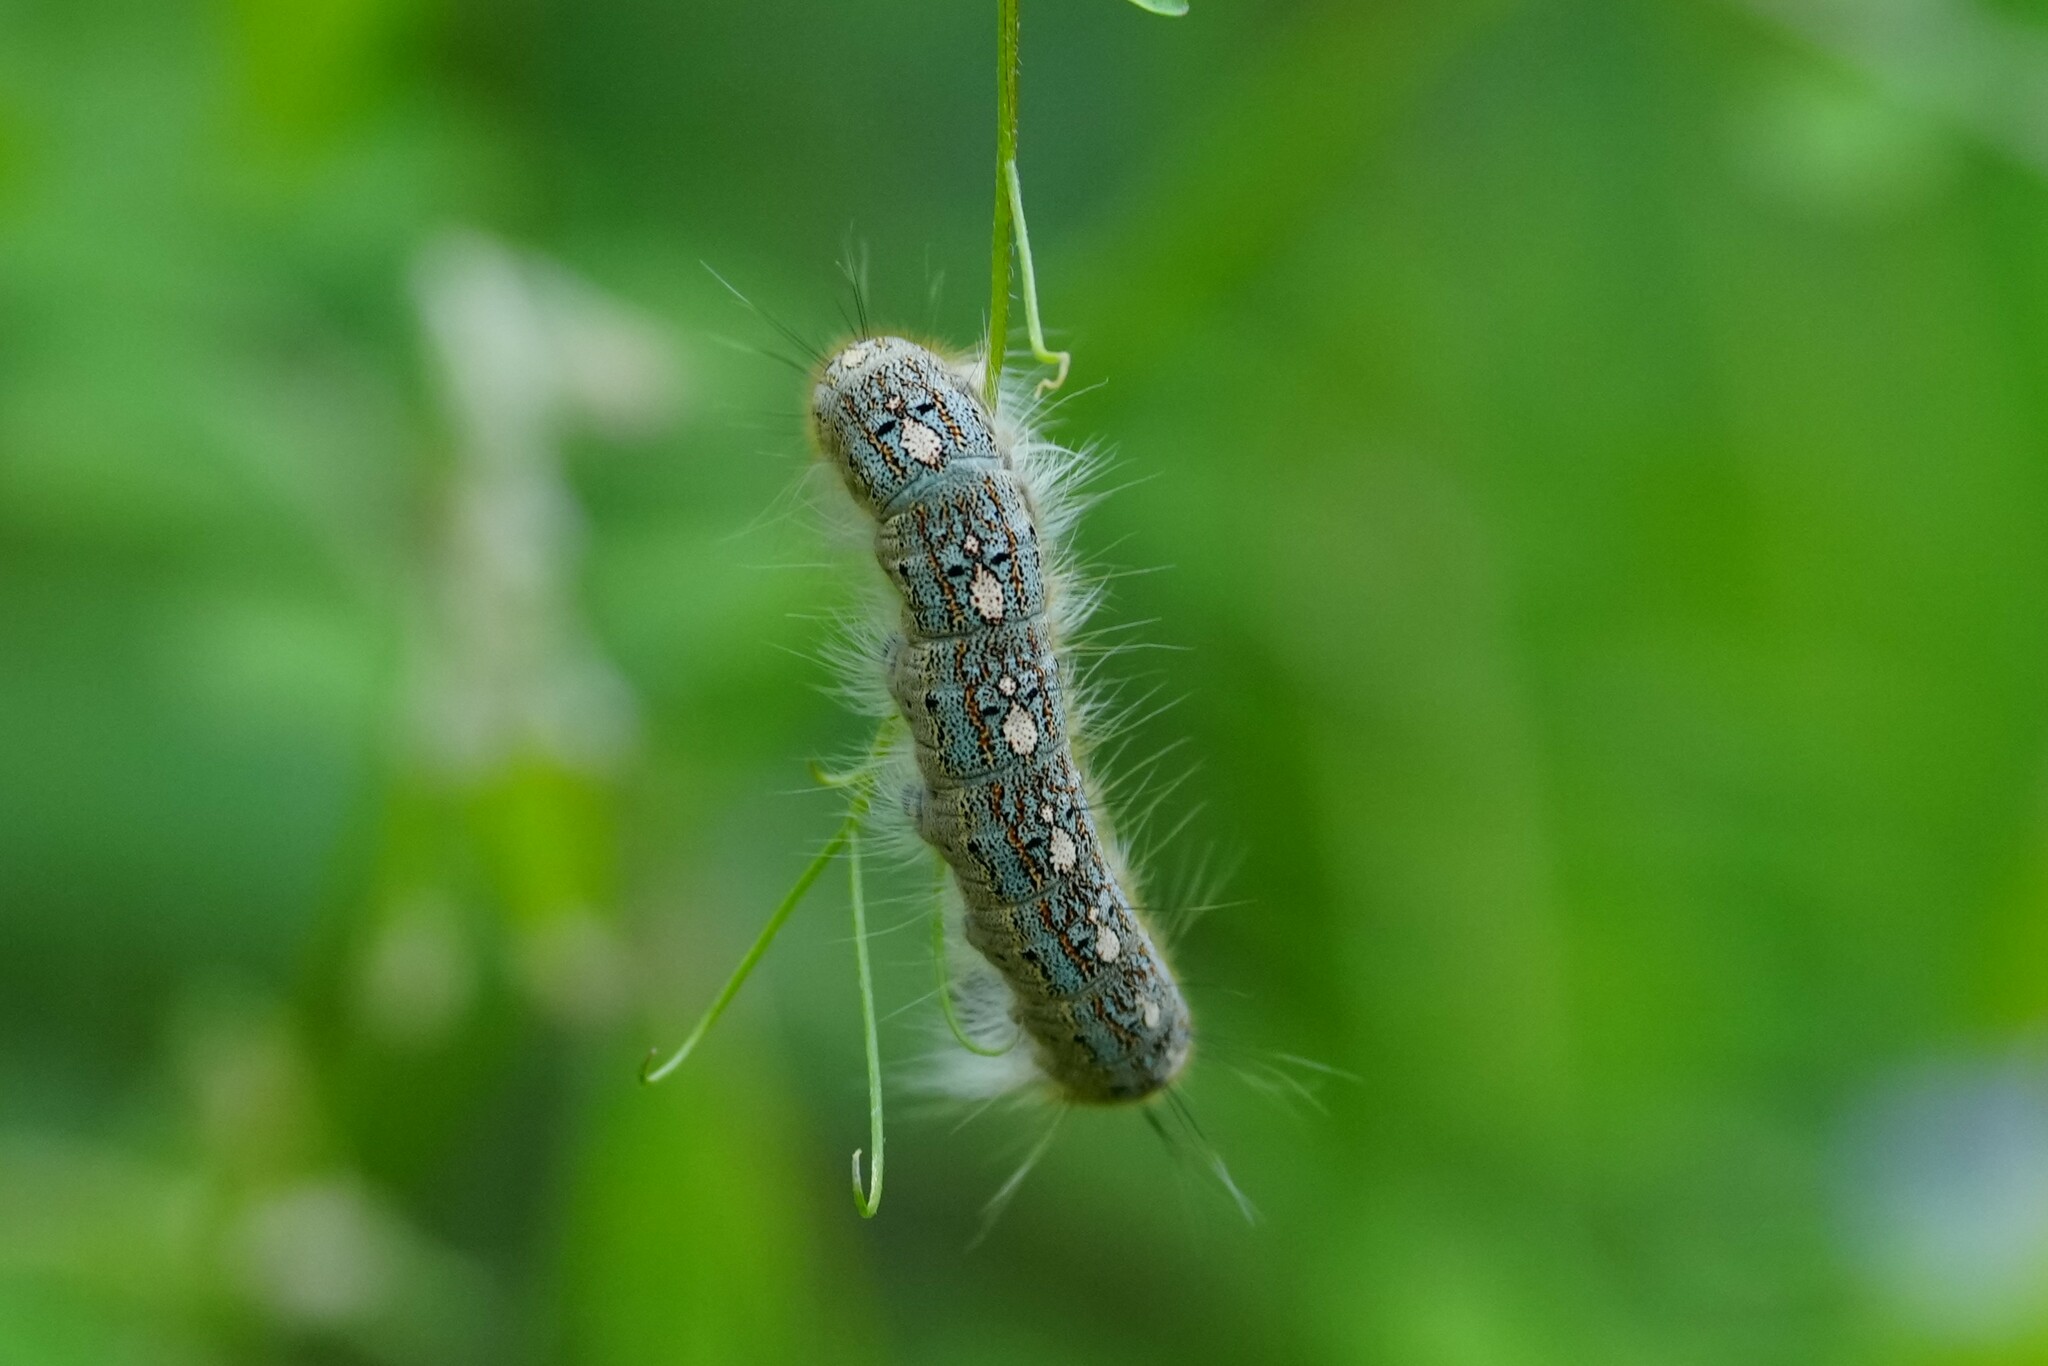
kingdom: Animalia
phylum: Arthropoda
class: Insecta
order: Lepidoptera
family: Lasiocampidae
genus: Malacosoma
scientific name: Malacosoma disstria
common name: Forest tent caterpillar
